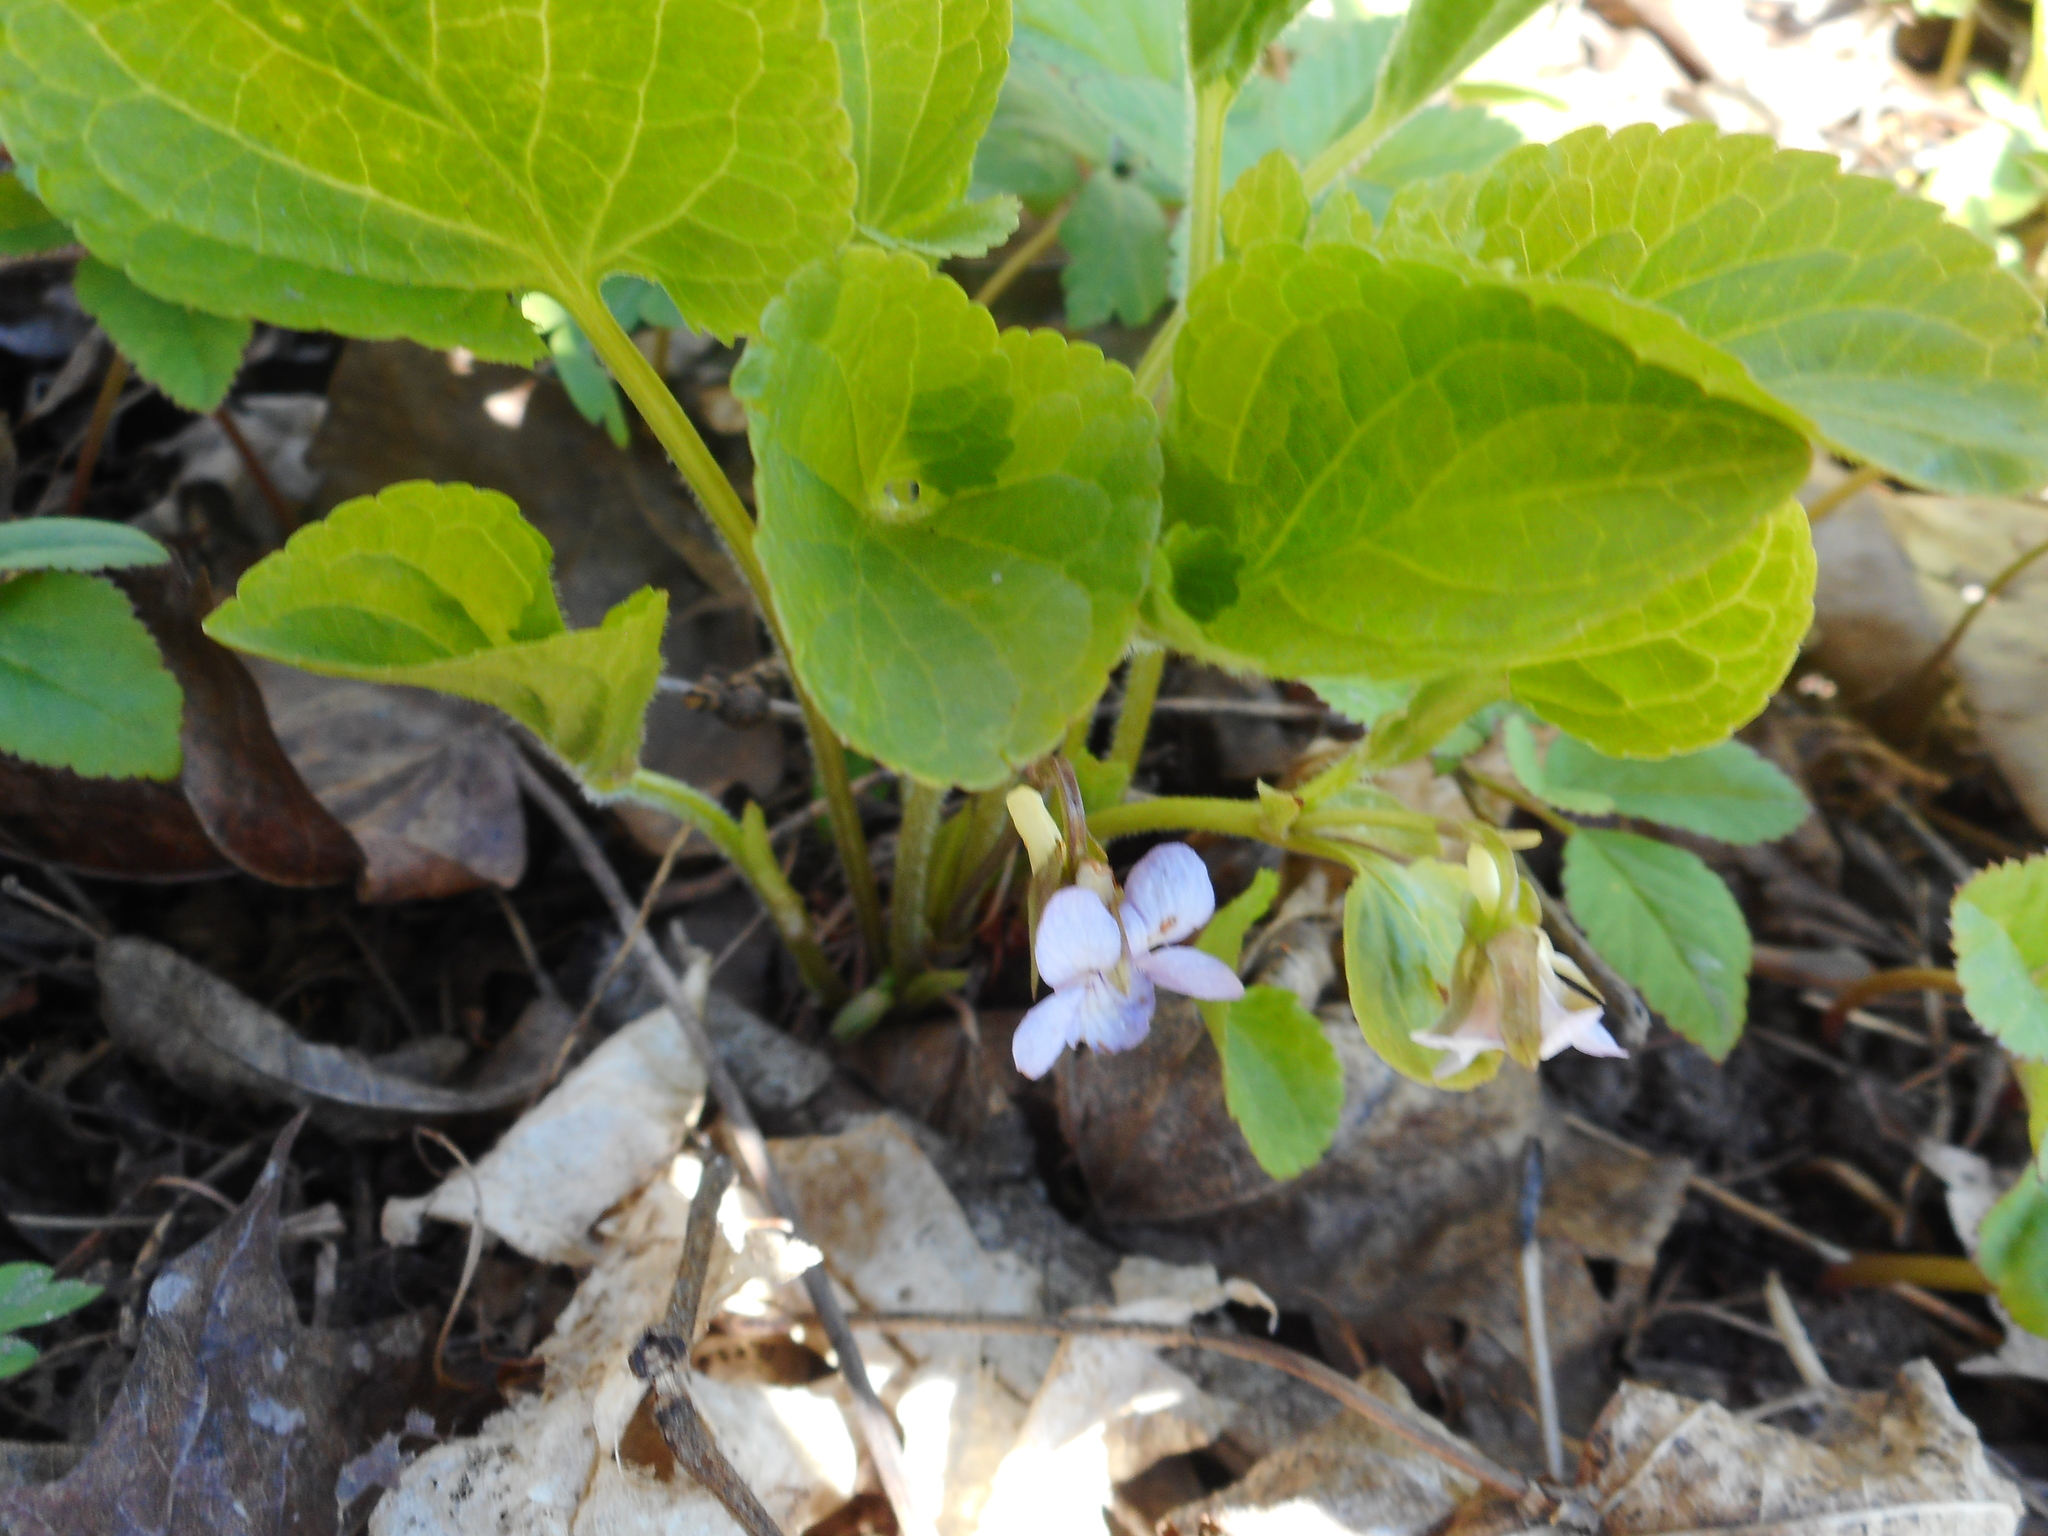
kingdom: Plantae
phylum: Tracheophyta
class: Magnoliopsida
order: Malpighiales
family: Violaceae
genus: Viola
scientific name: Viola mirabilis
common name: Wonder violet
